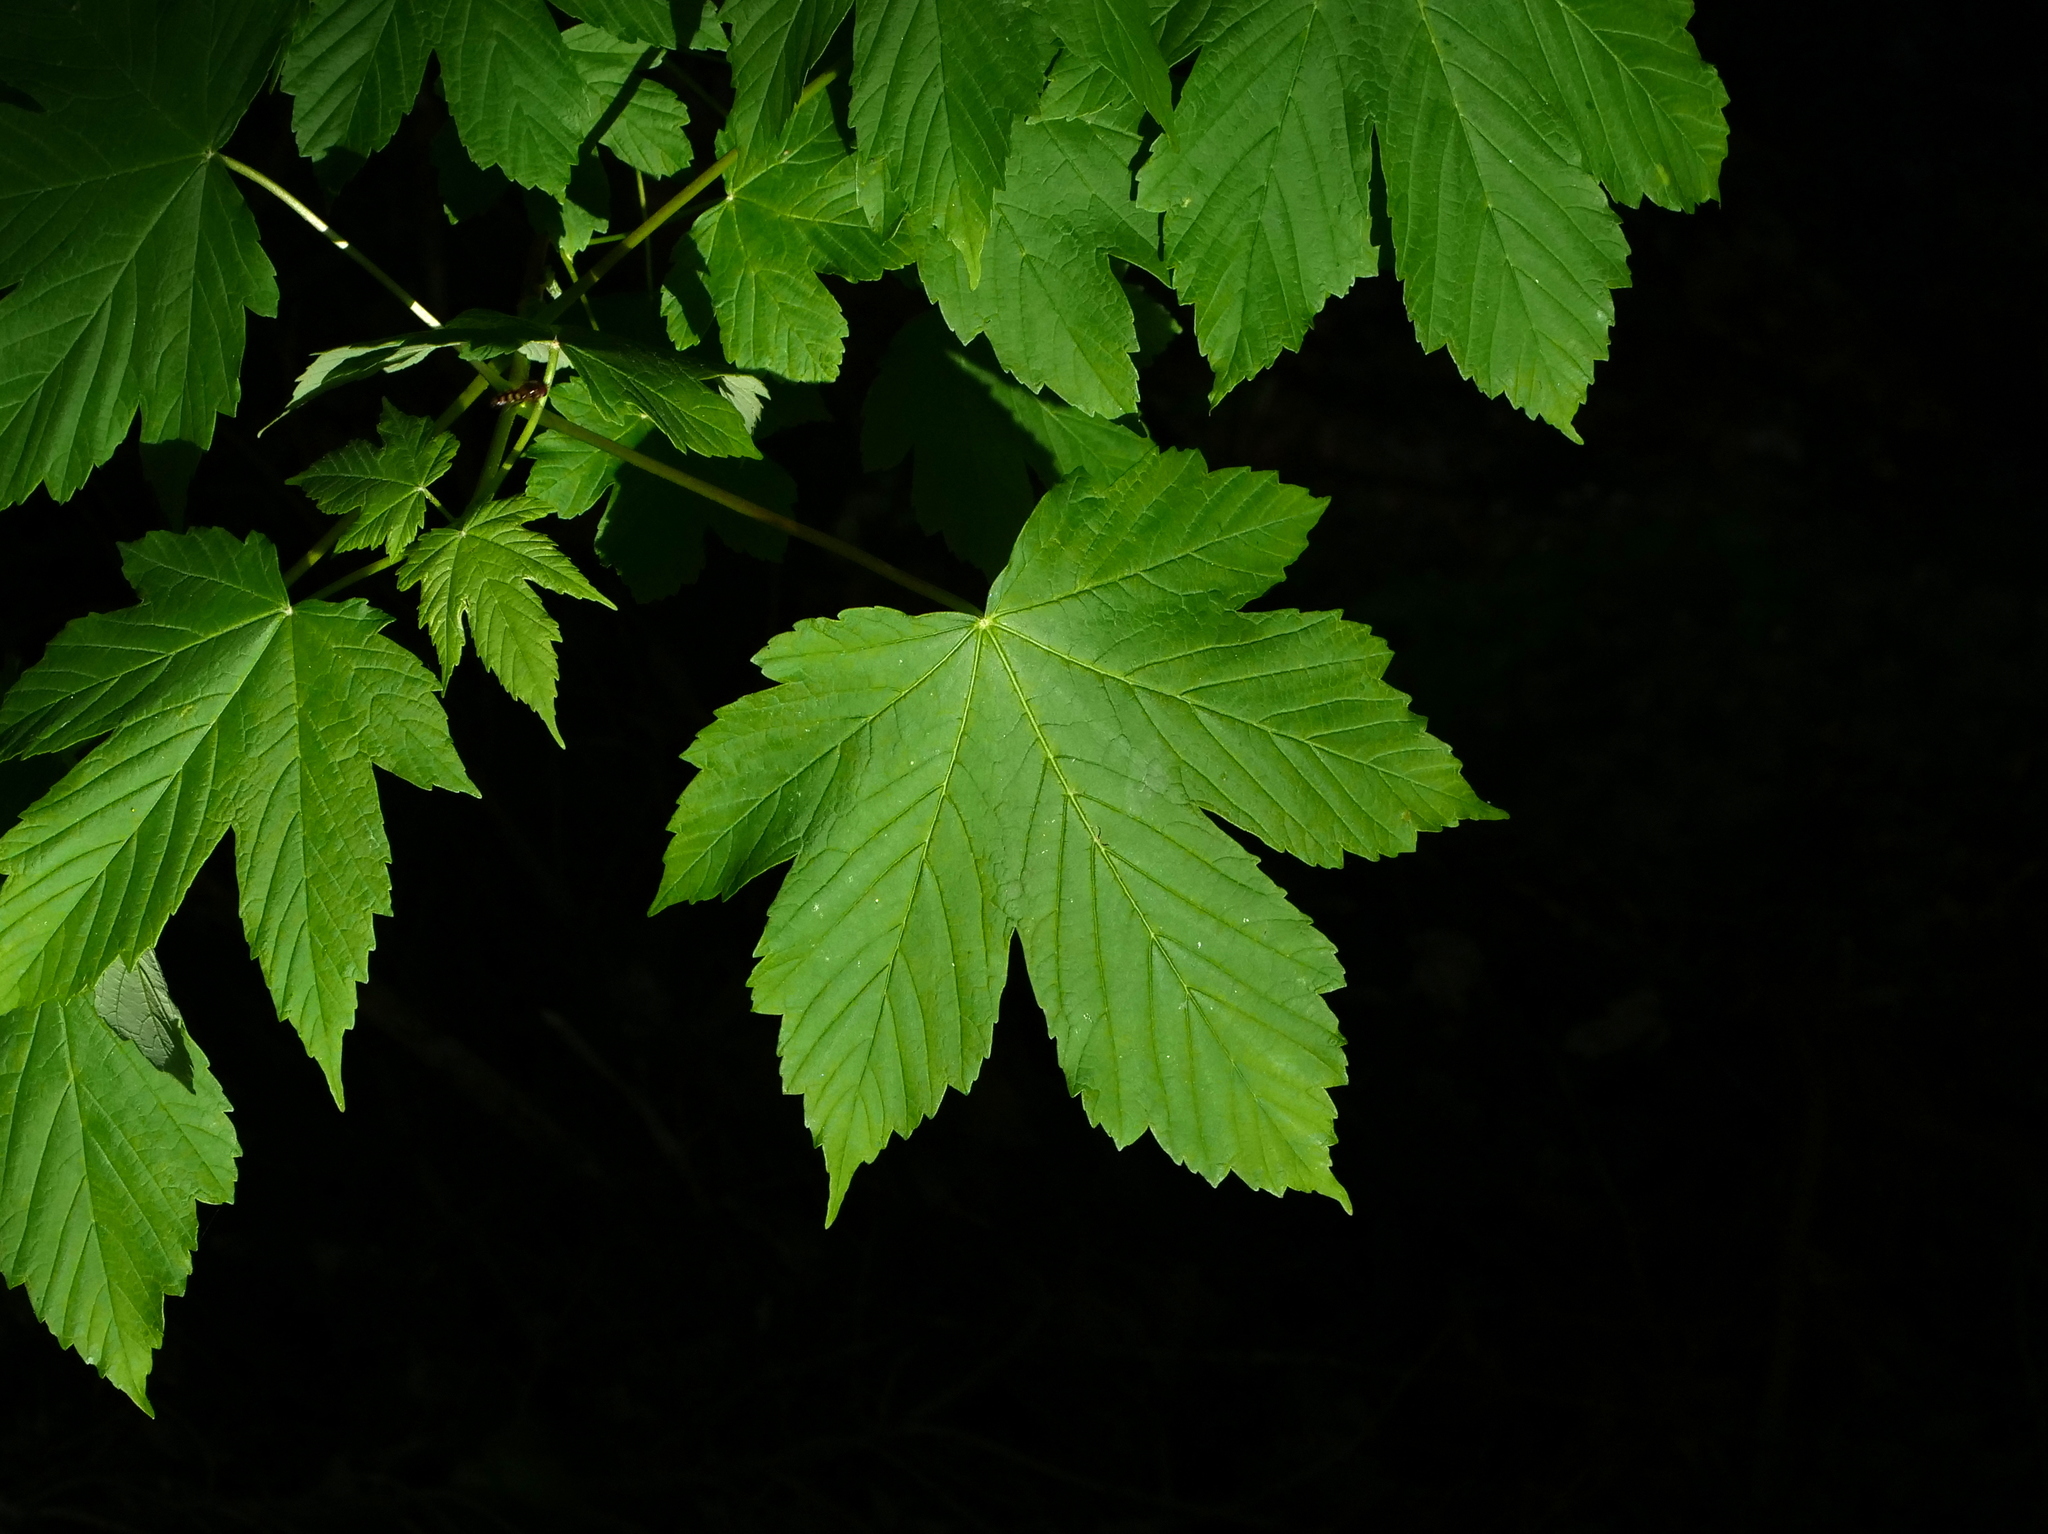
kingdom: Plantae
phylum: Tracheophyta
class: Magnoliopsida
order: Sapindales
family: Sapindaceae
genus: Acer
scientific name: Acer pseudoplatanus
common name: Sycamore
